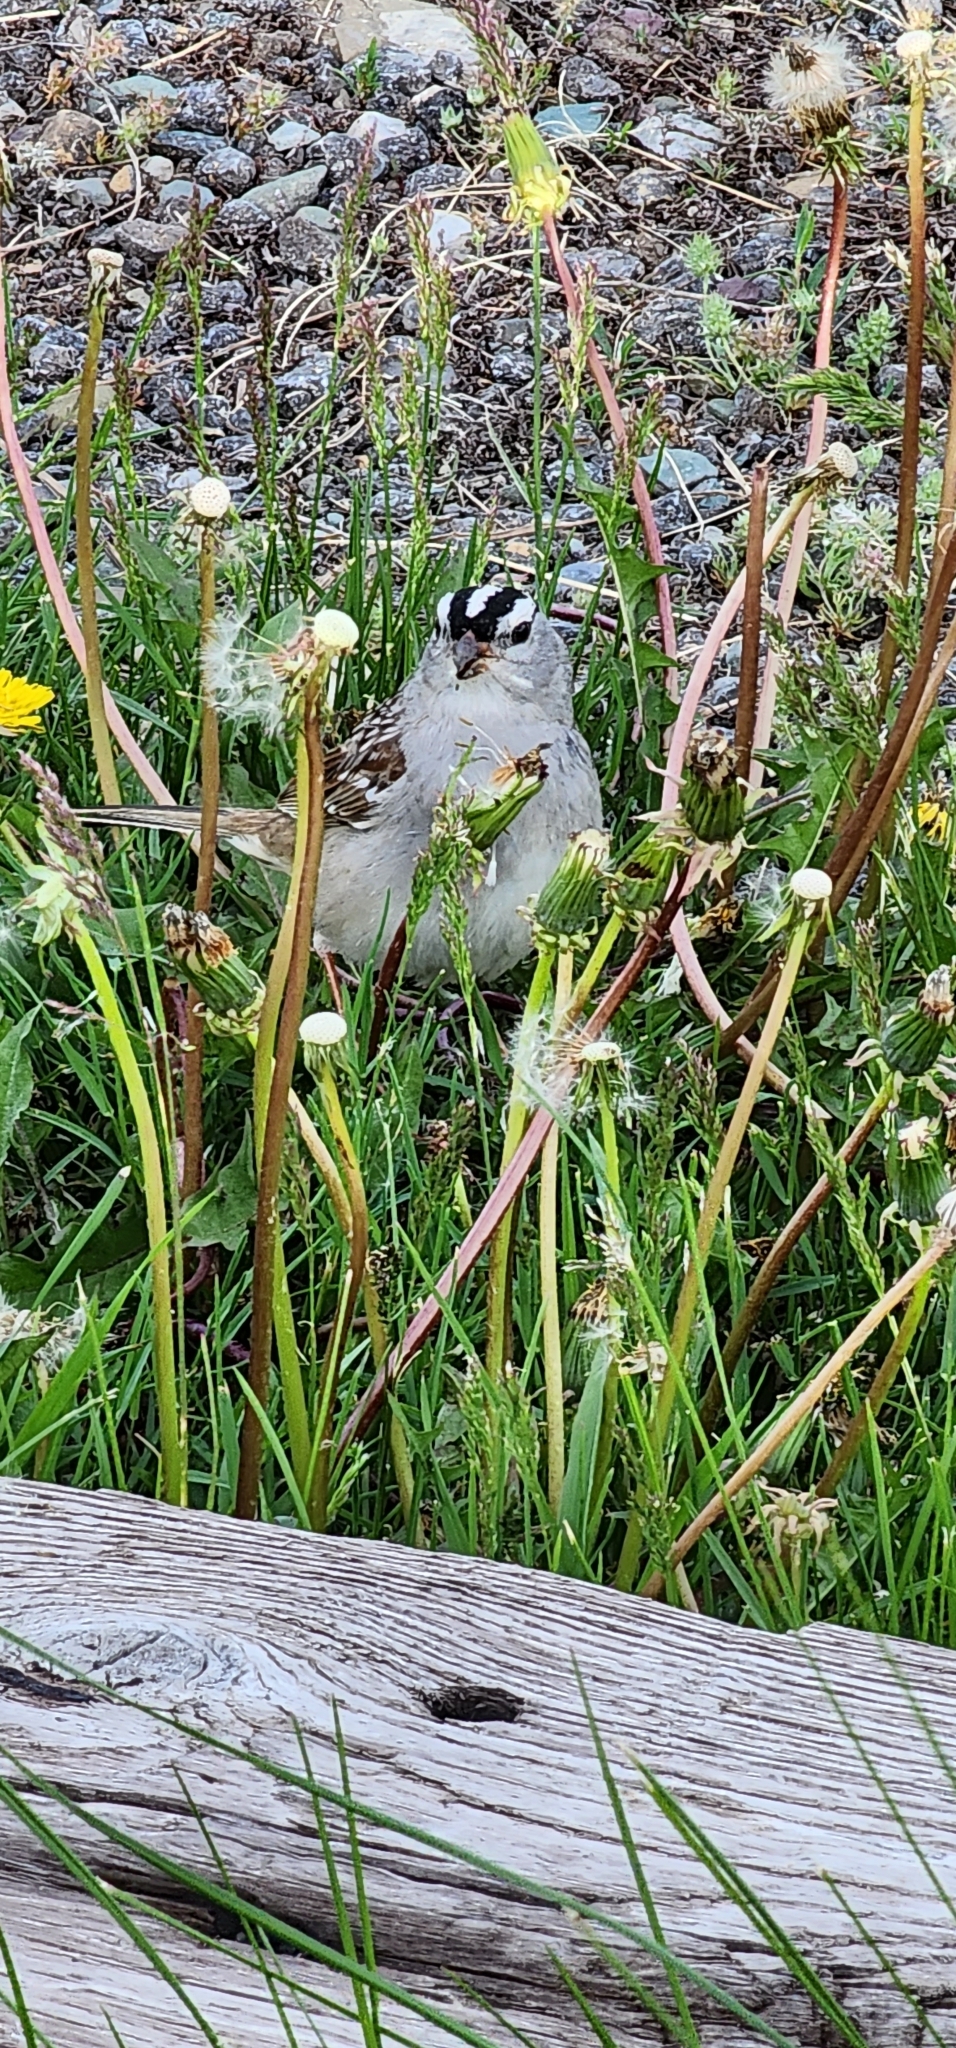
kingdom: Animalia
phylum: Chordata
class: Aves
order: Passeriformes
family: Passerellidae
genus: Zonotrichia
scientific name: Zonotrichia leucophrys
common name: White-crowned sparrow
